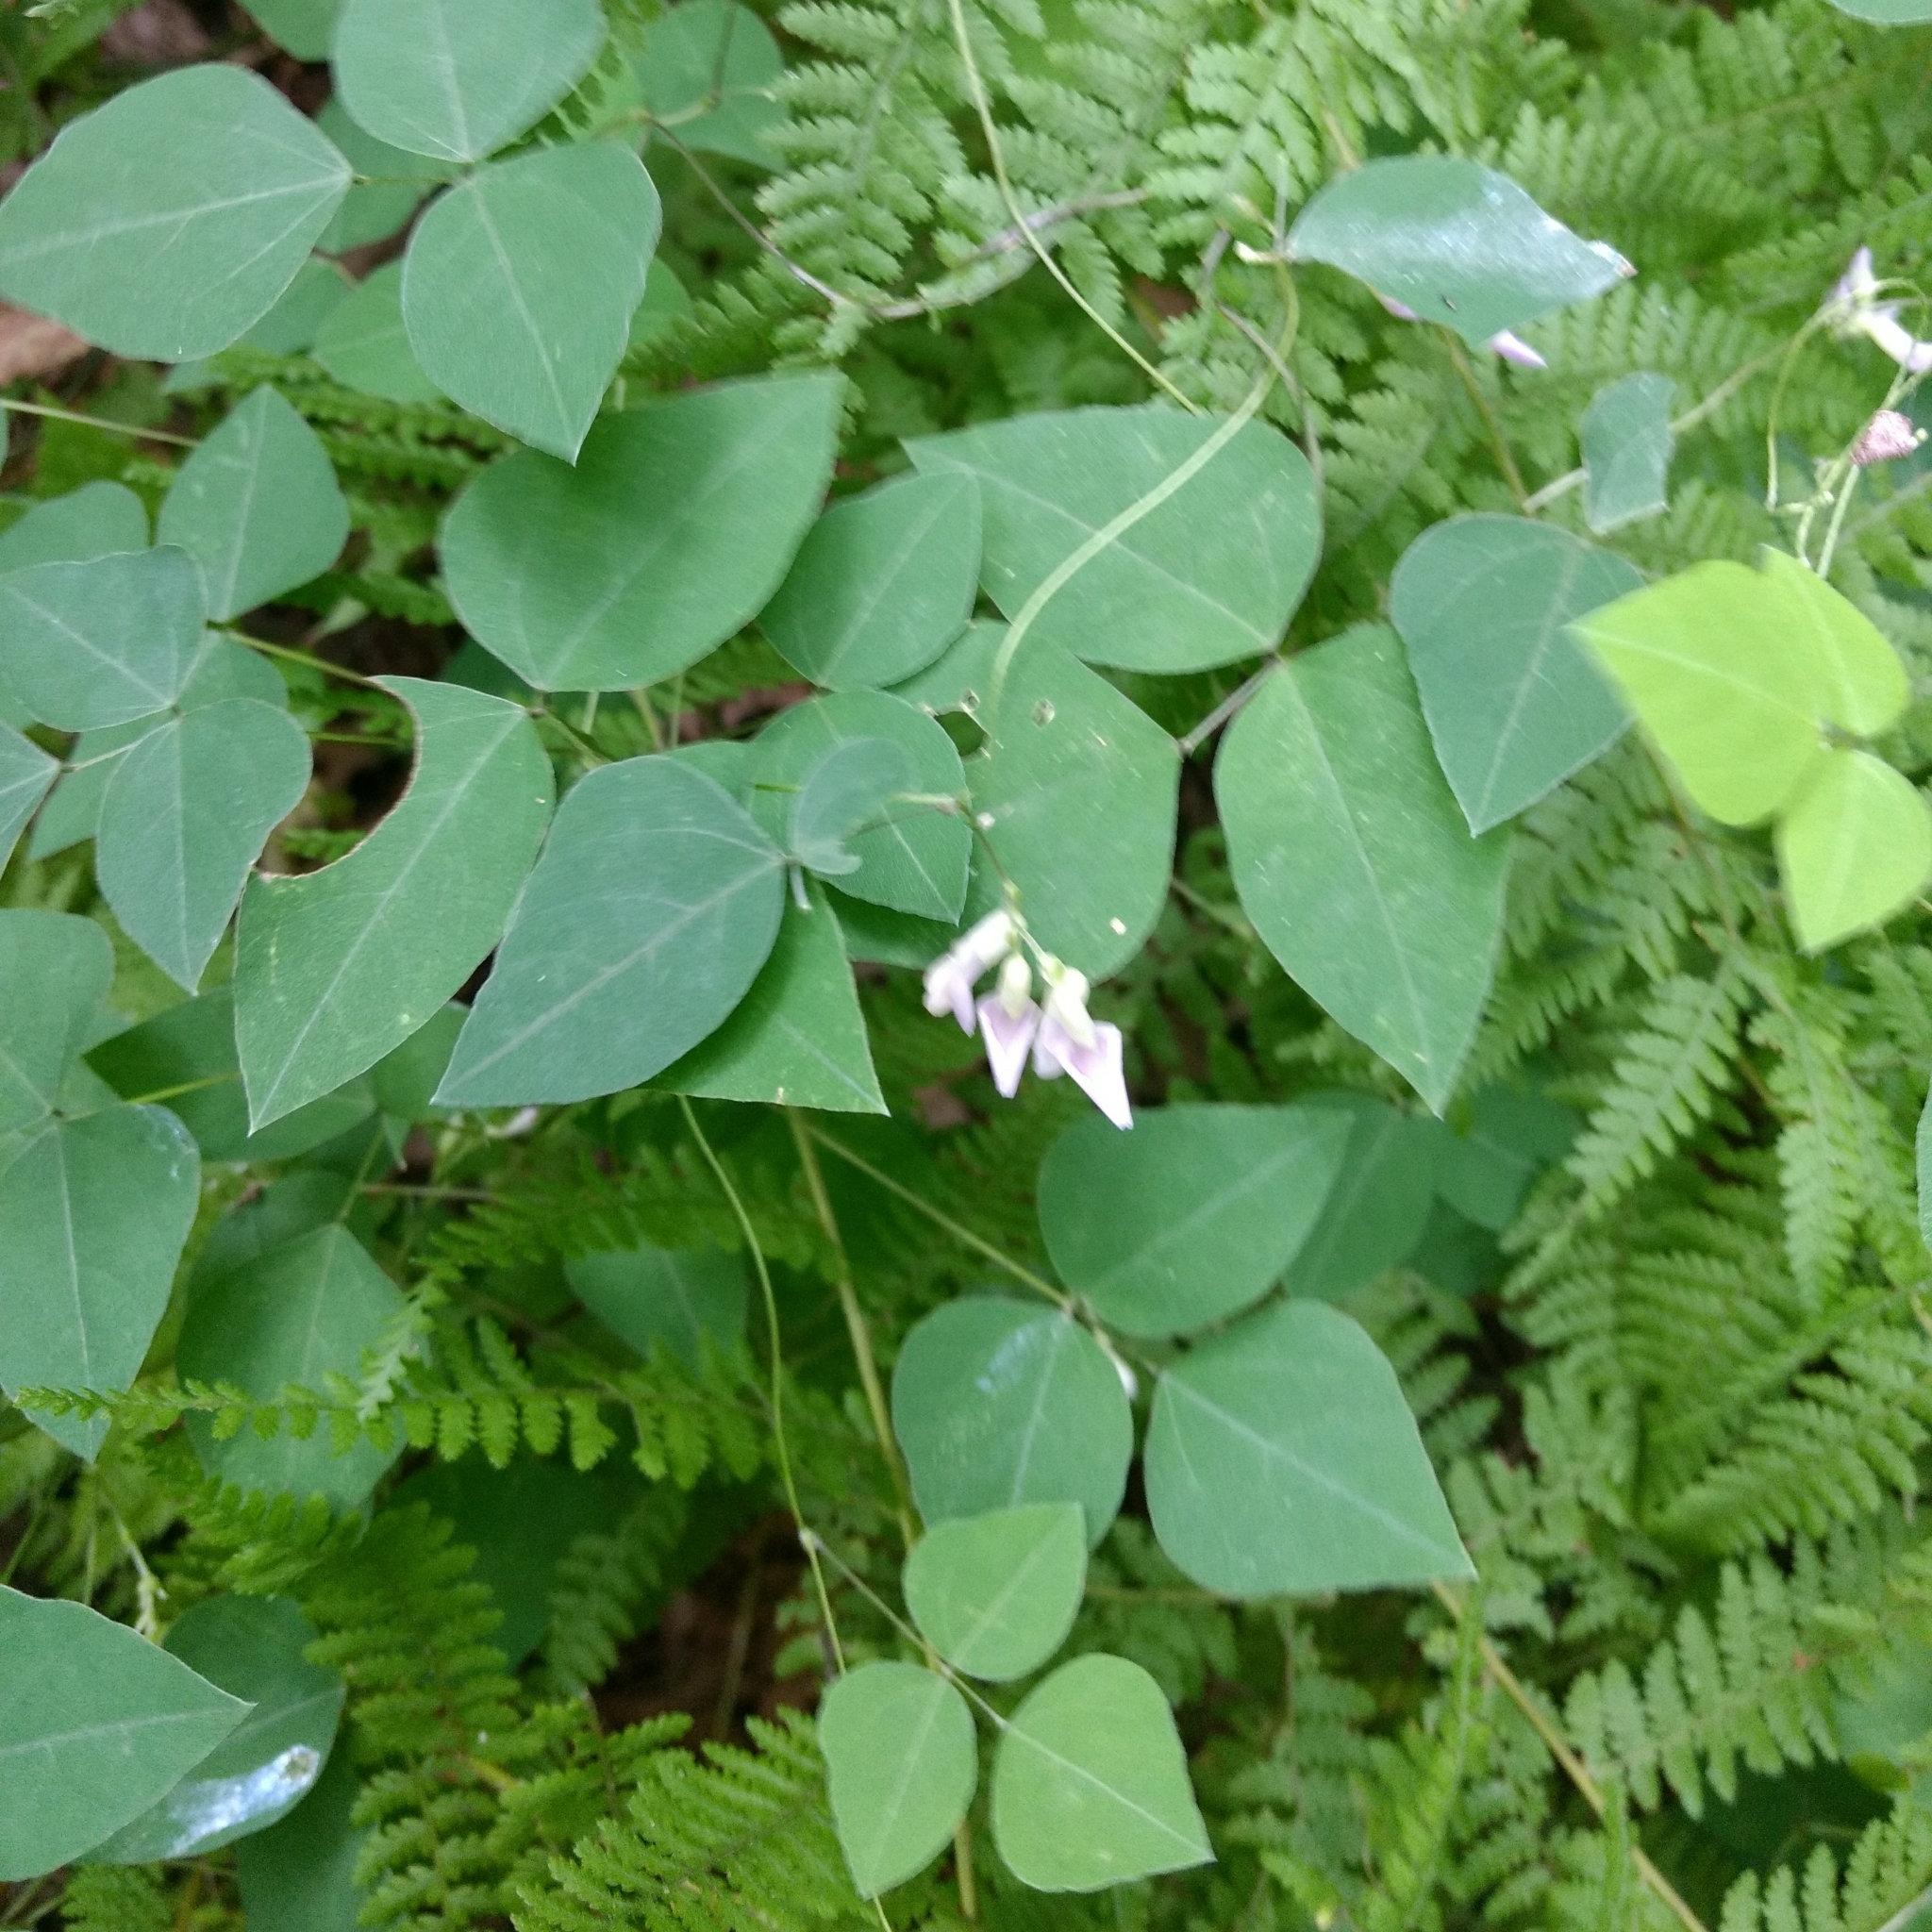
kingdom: Plantae
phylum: Tracheophyta
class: Magnoliopsida
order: Fabales
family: Fabaceae
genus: Amphicarpaea
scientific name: Amphicarpaea bracteata
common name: American hog peanut
